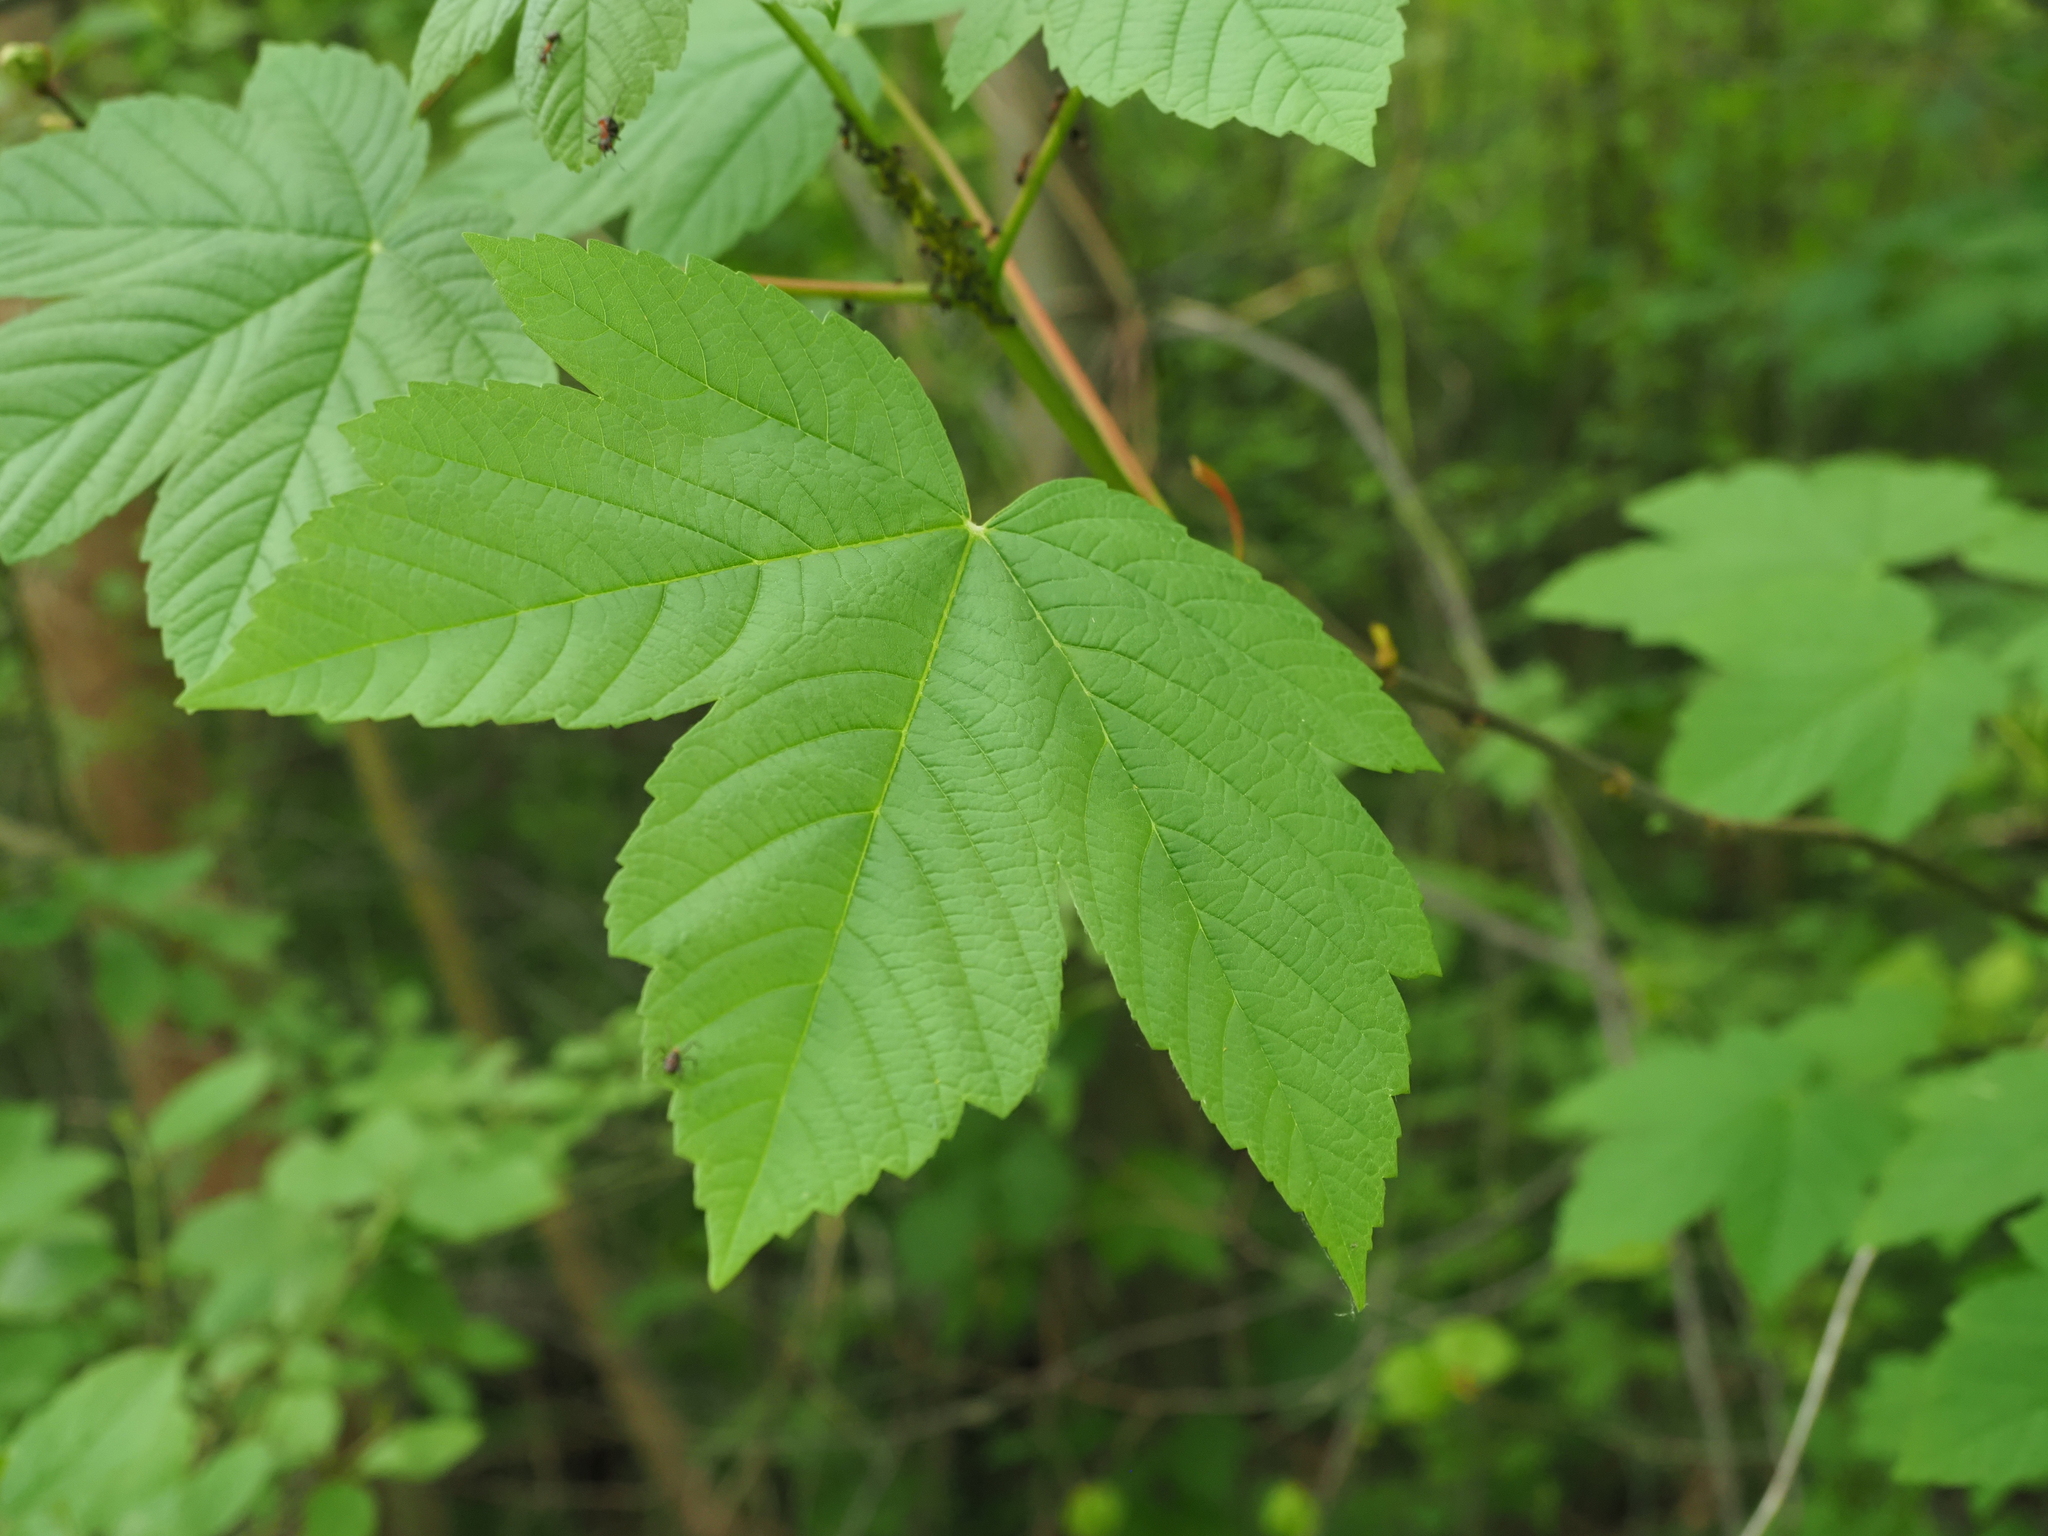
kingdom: Plantae
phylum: Tracheophyta
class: Magnoliopsida
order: Sapindales
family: Sapindaceae
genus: Acer
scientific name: Acer pseudoplatanus
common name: Sycamore
